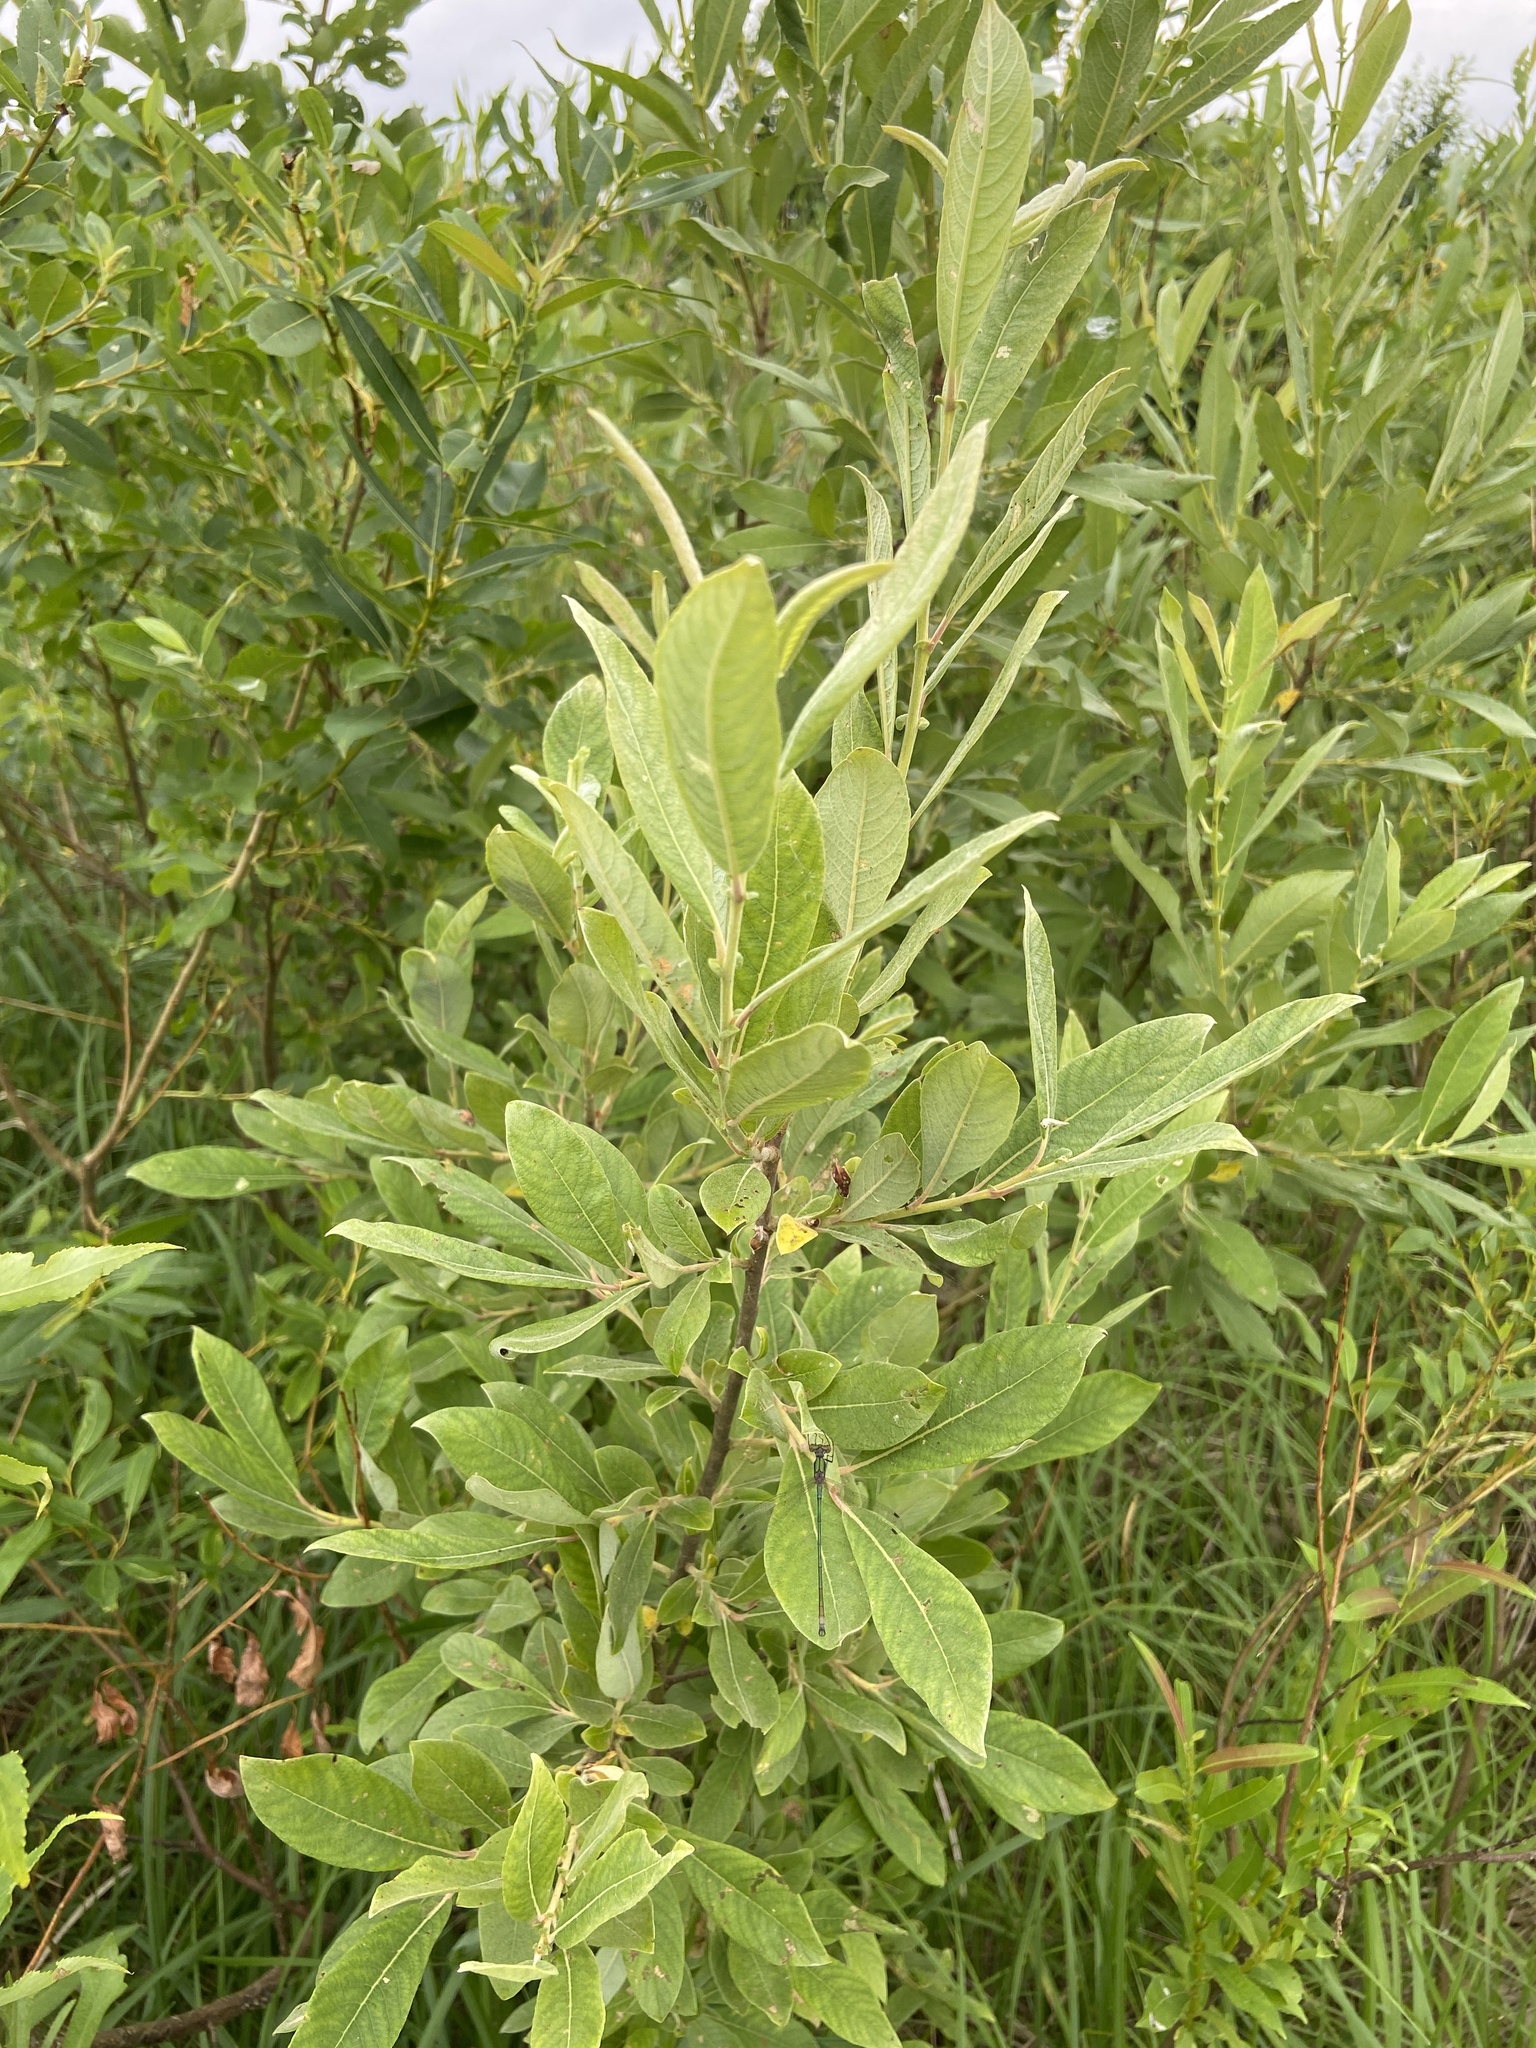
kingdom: Plantae
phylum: Tracheophyta
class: Magnoliopsida
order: Malpighiales
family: Salicaceae
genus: Salix
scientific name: Salix cinerea
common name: Common sallow
